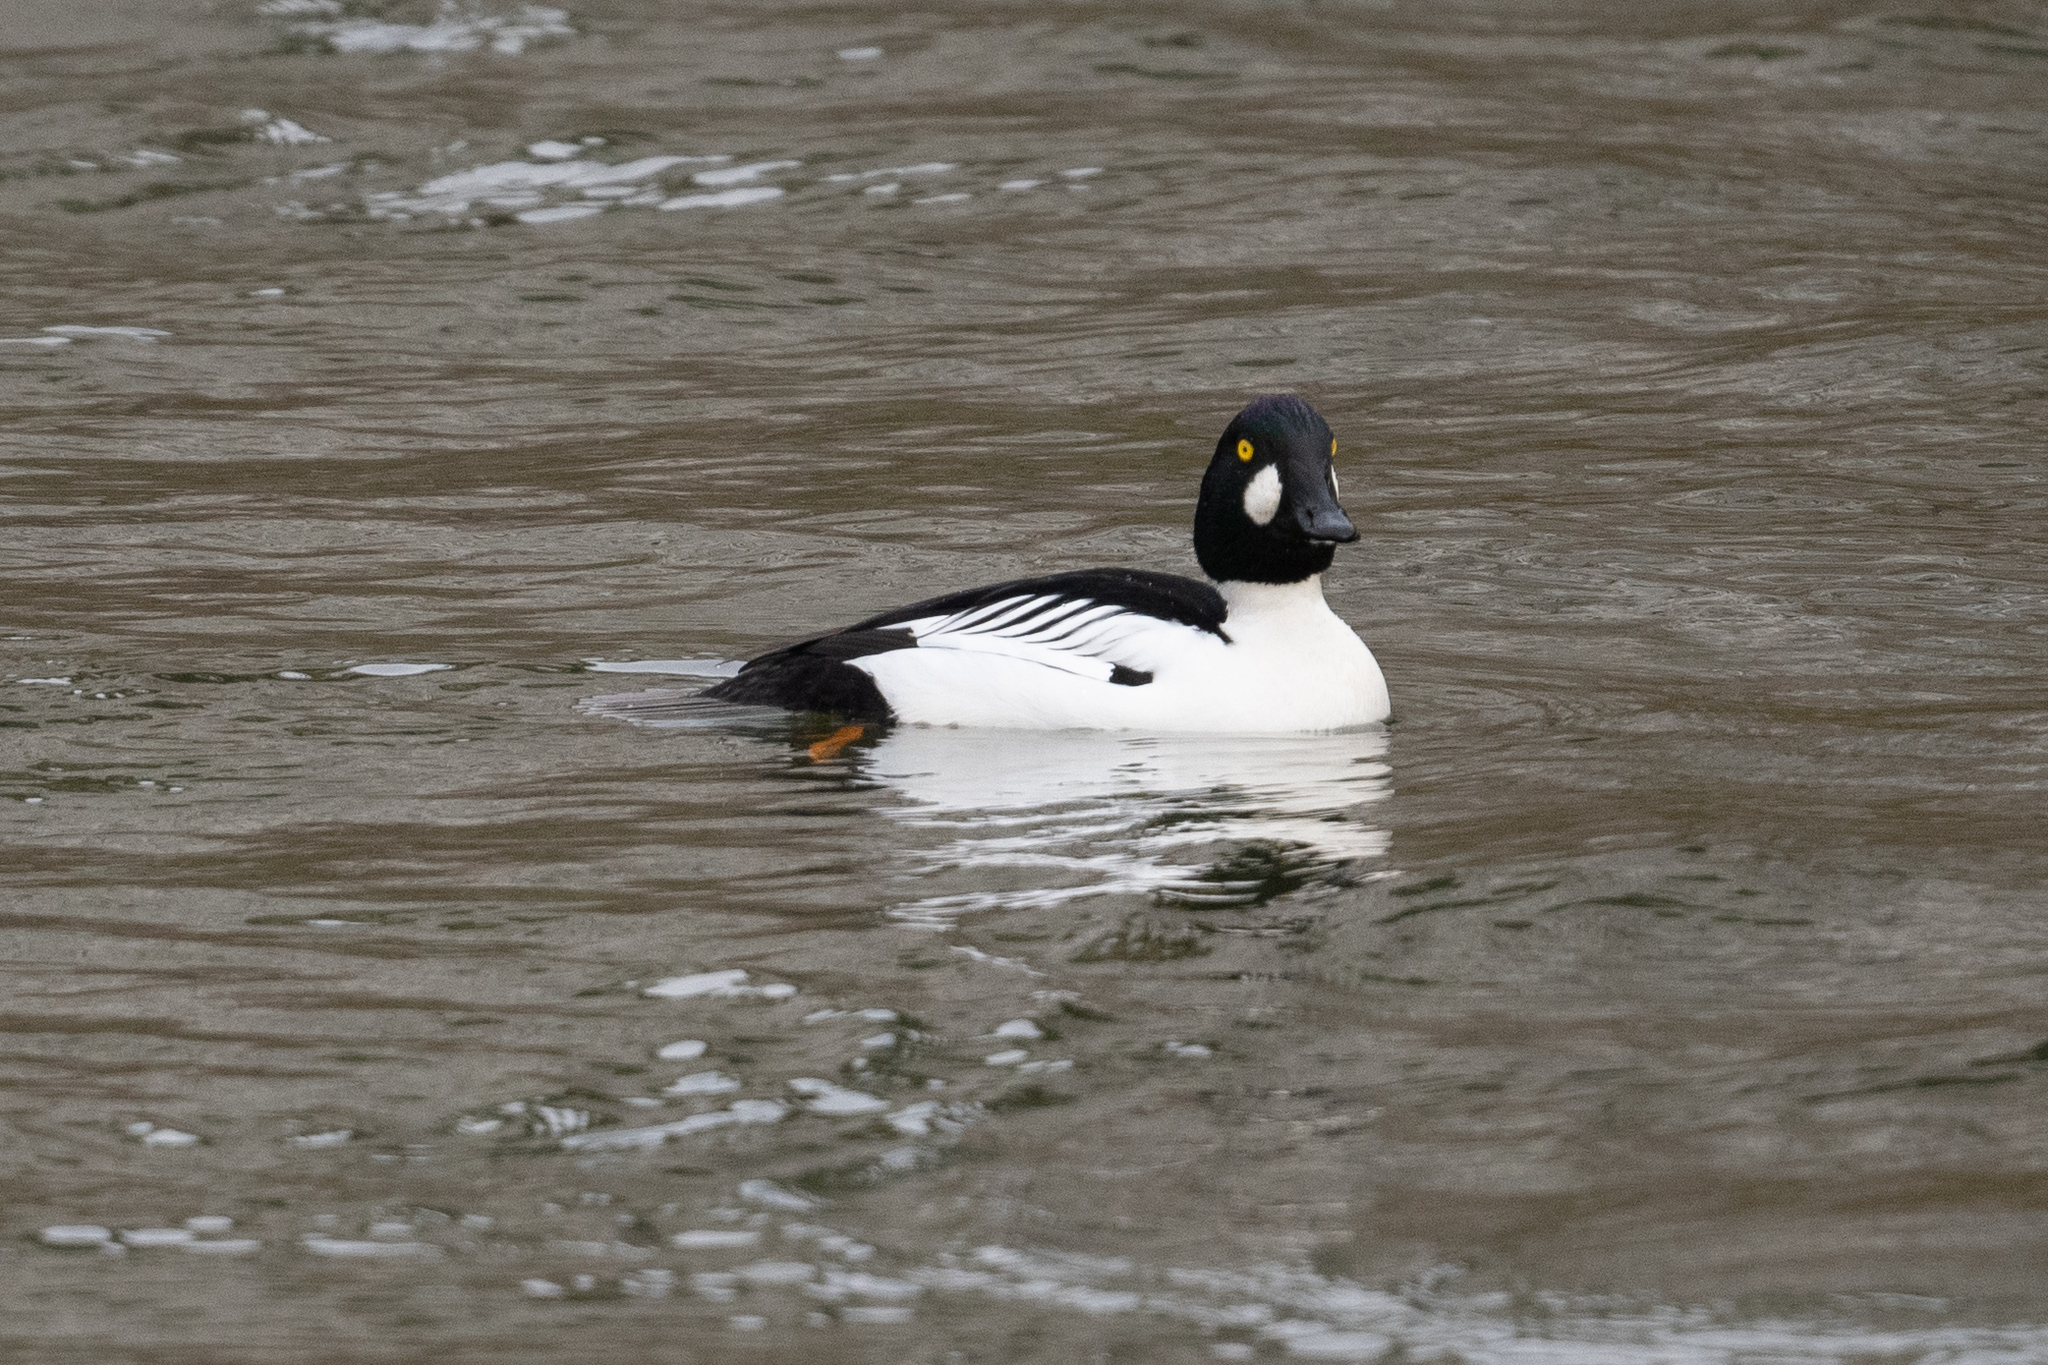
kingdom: Animalia
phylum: Chordata
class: Aves
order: Anseriformes
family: Anatidae
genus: Bucephala
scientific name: Bucephala clangula
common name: Common goldeneye
